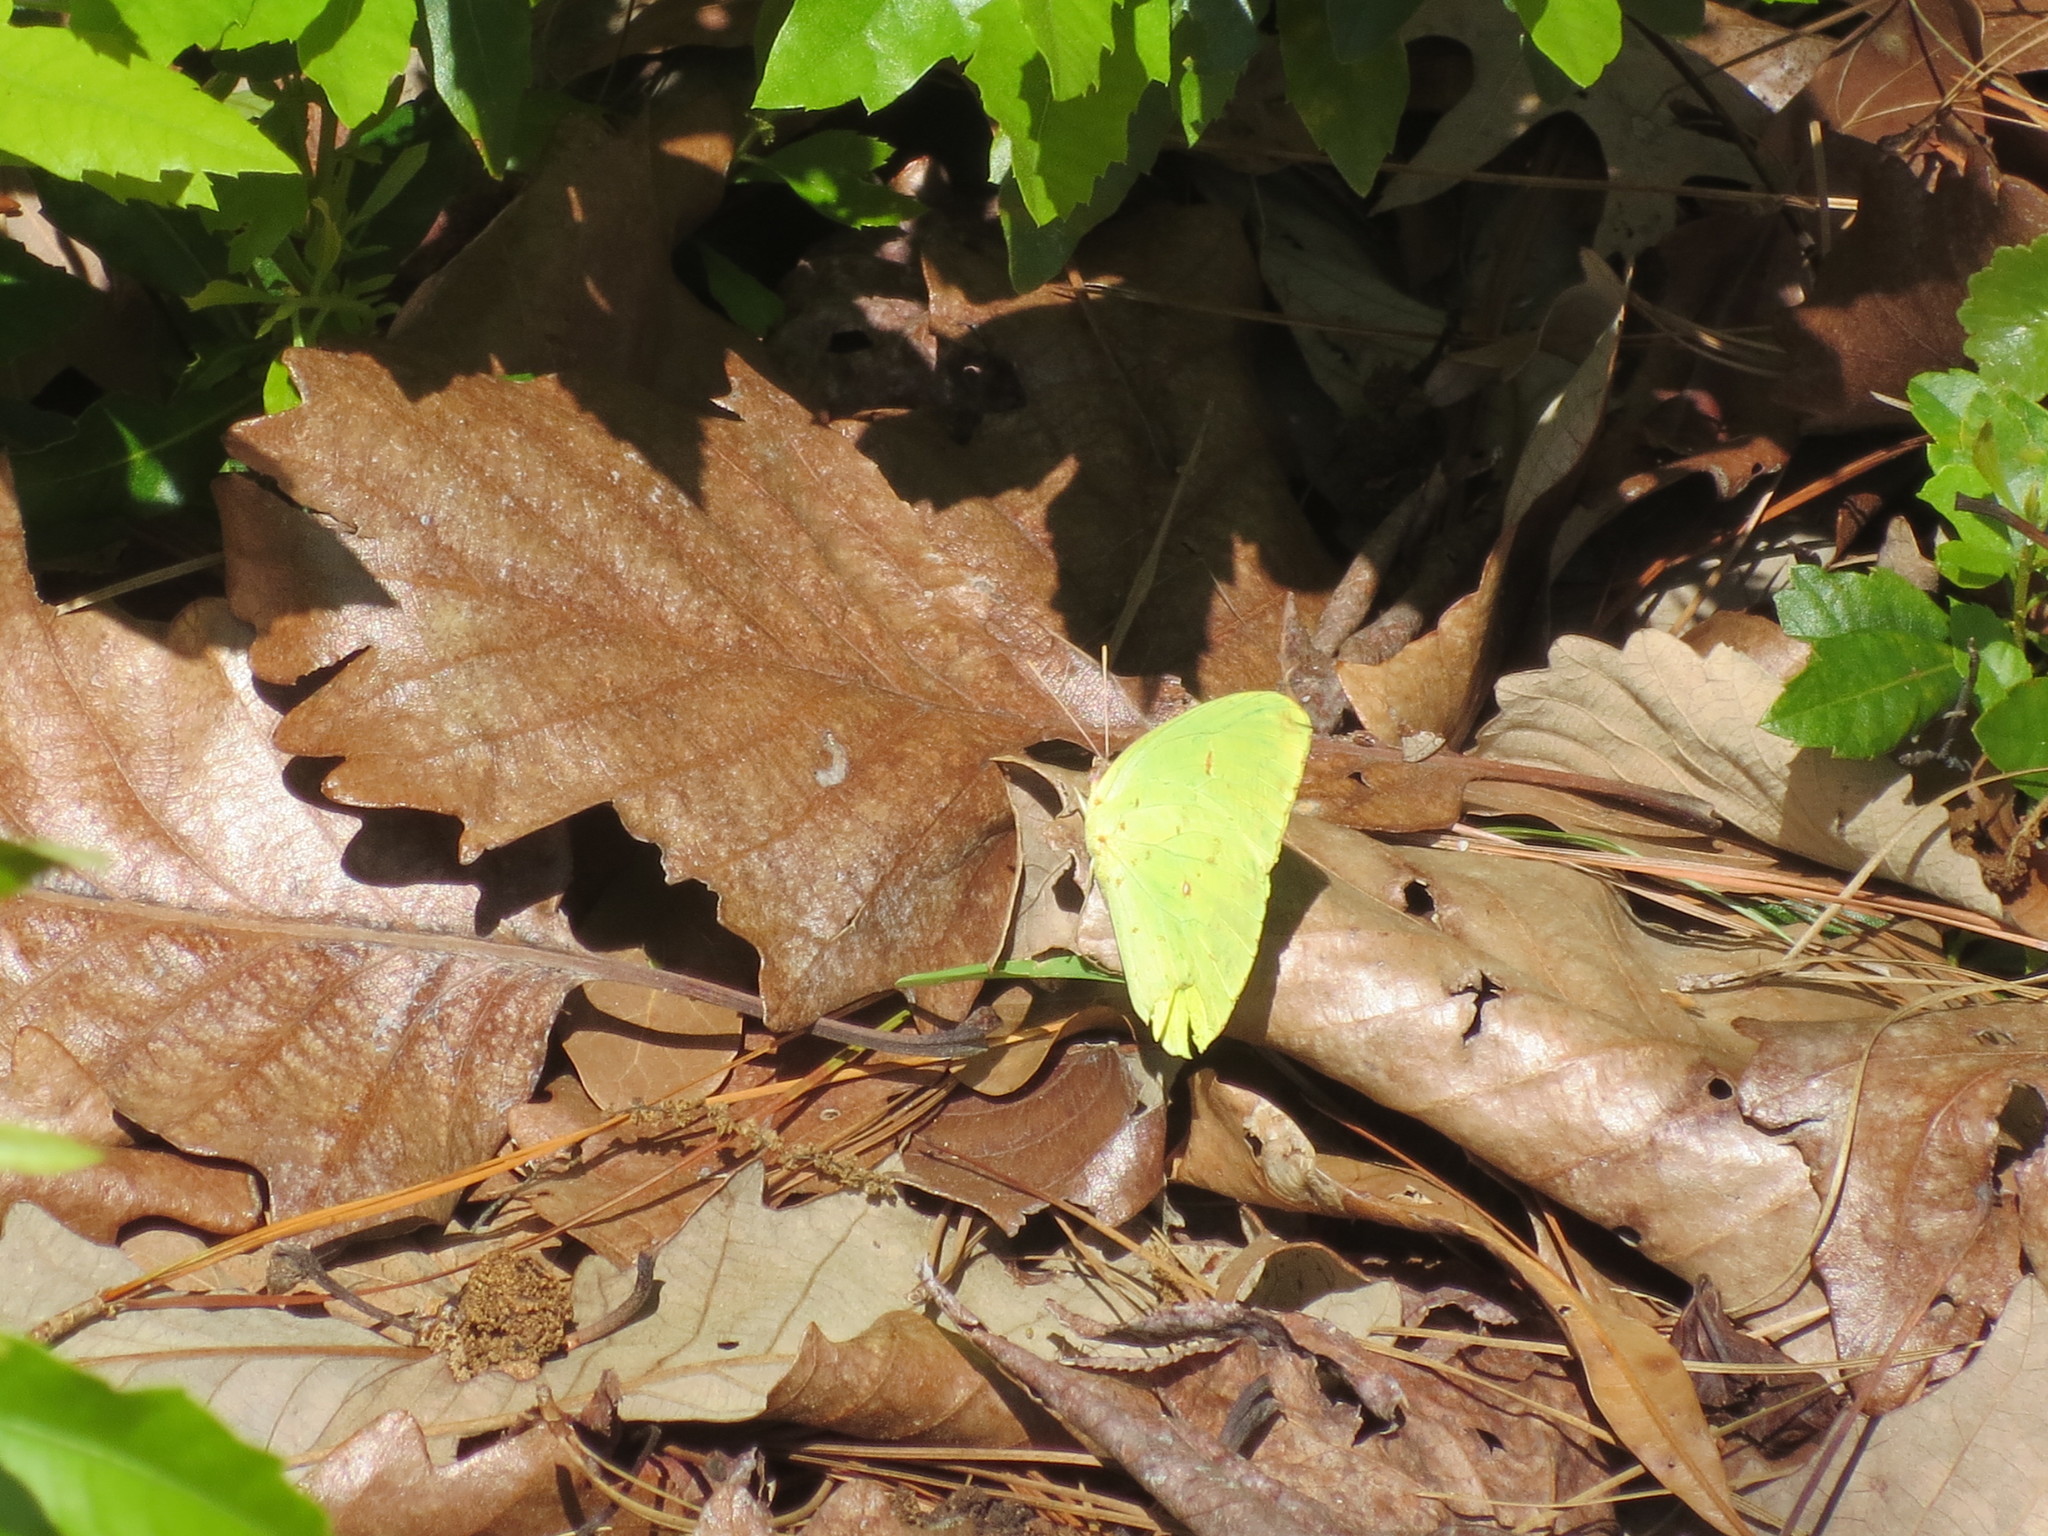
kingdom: Animalia
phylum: Arthropoda
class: Insecta
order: Lepidoptera
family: Pieridae
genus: Phoebis
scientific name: Phoebis sennae
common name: Cloudless sulphur
